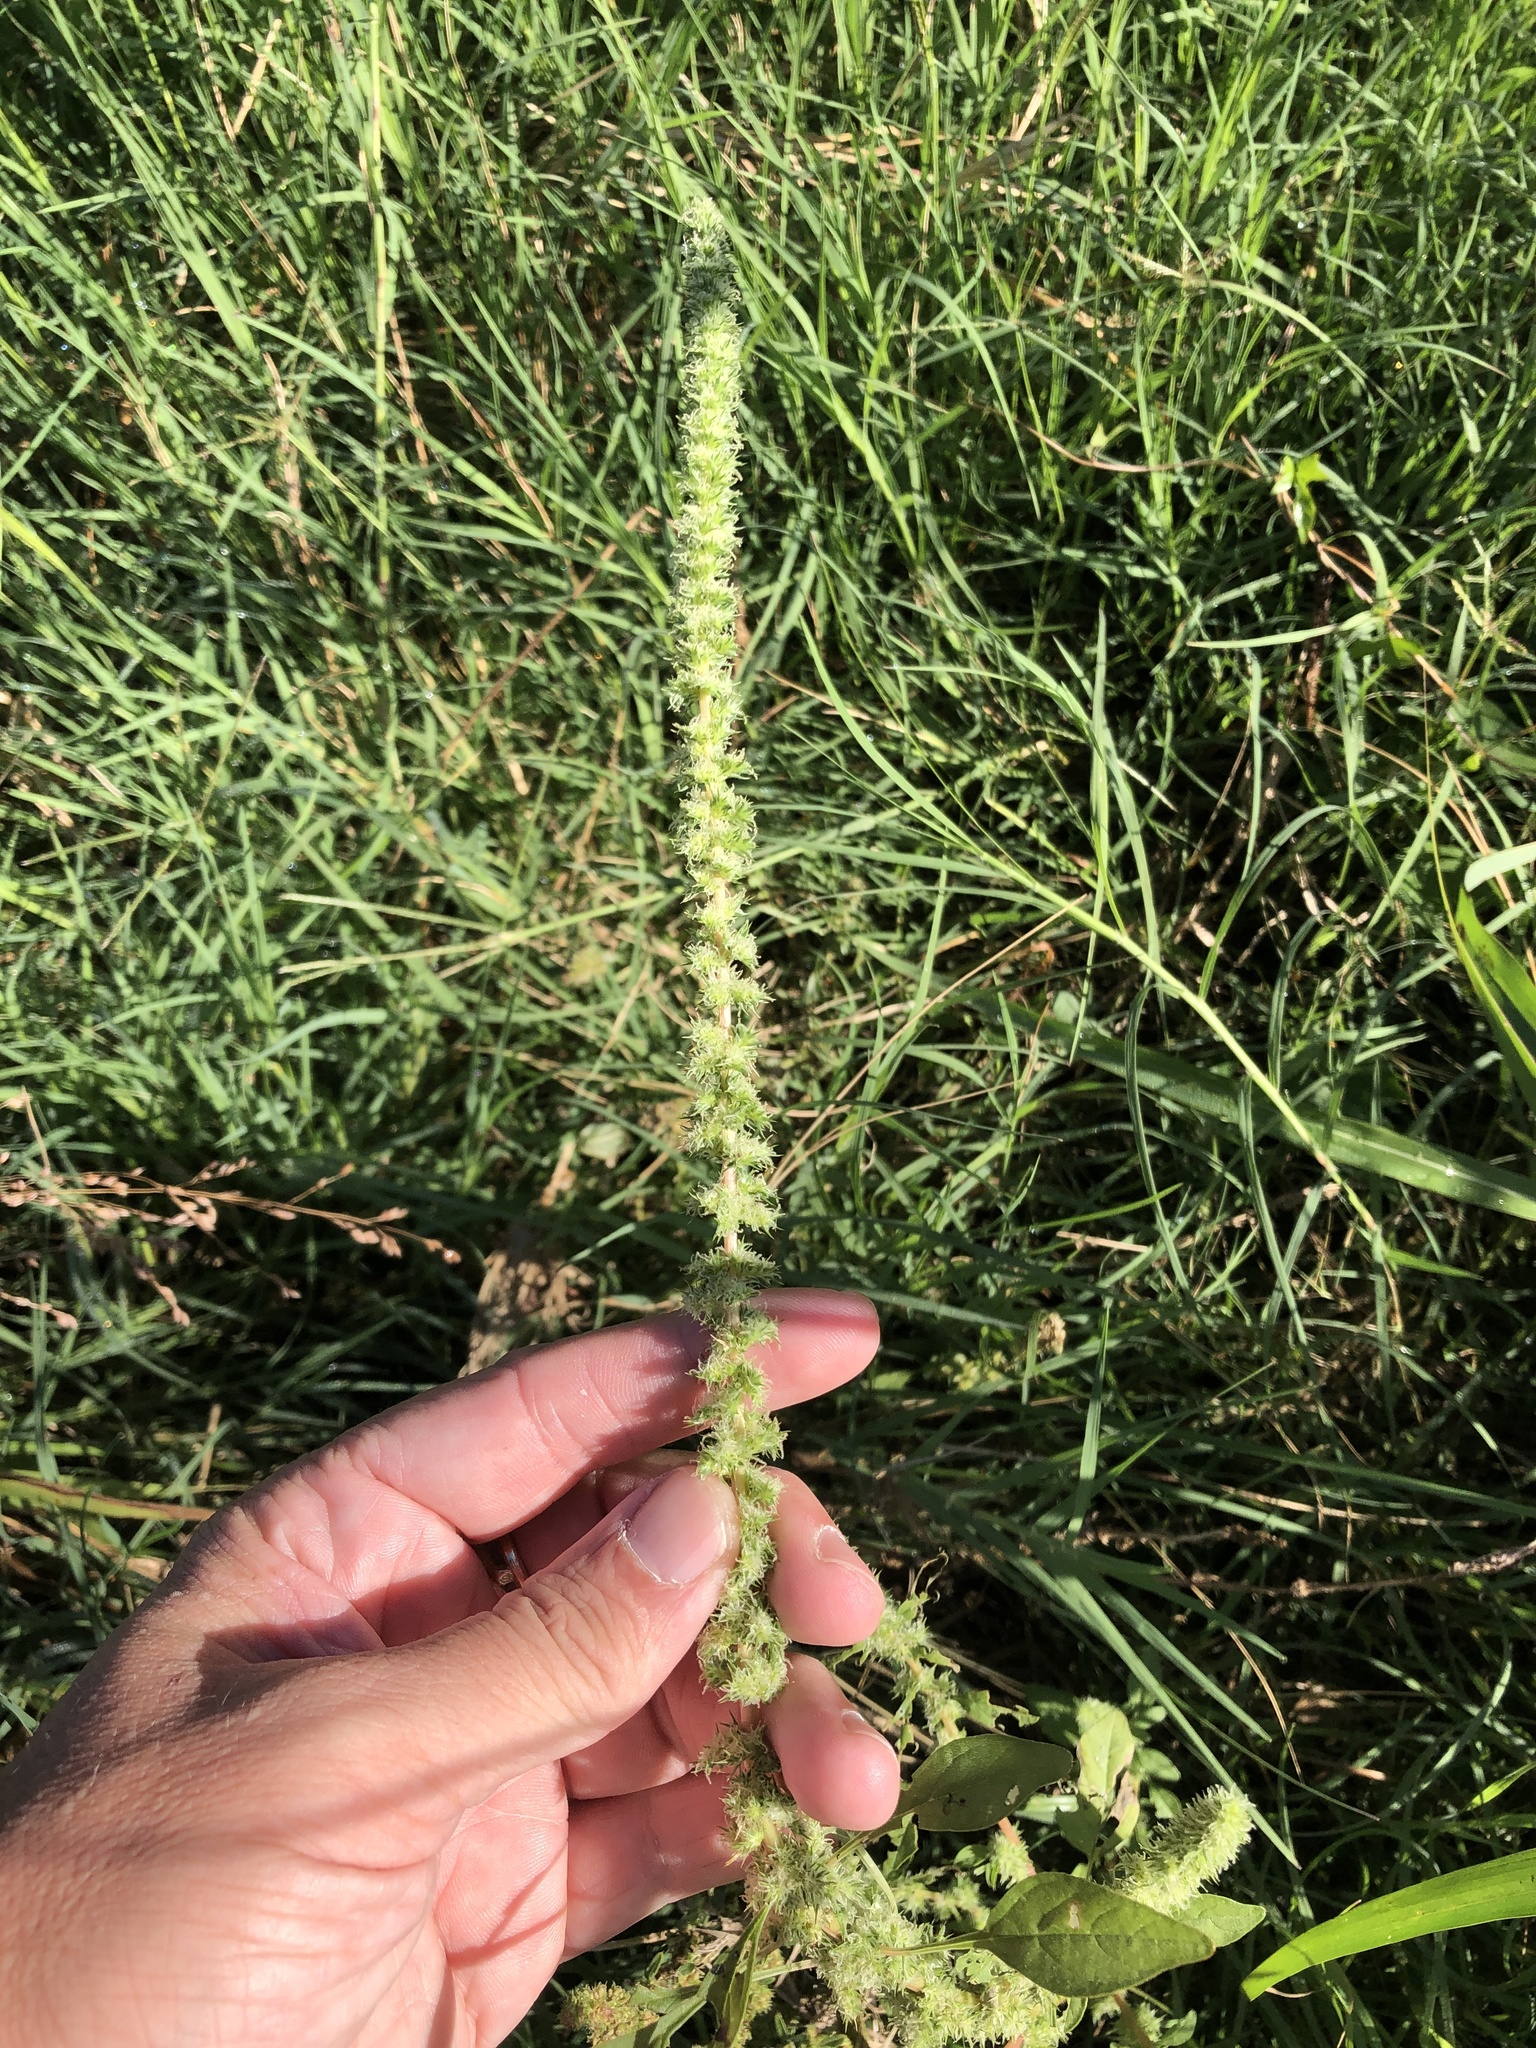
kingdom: Plantae
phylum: Tracheophyta
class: Magnoliopsida
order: Caryophyllales
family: Amaranthaceae
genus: Amaranthus
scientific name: Amaranthus palmeri
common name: Dioecious amaranth
